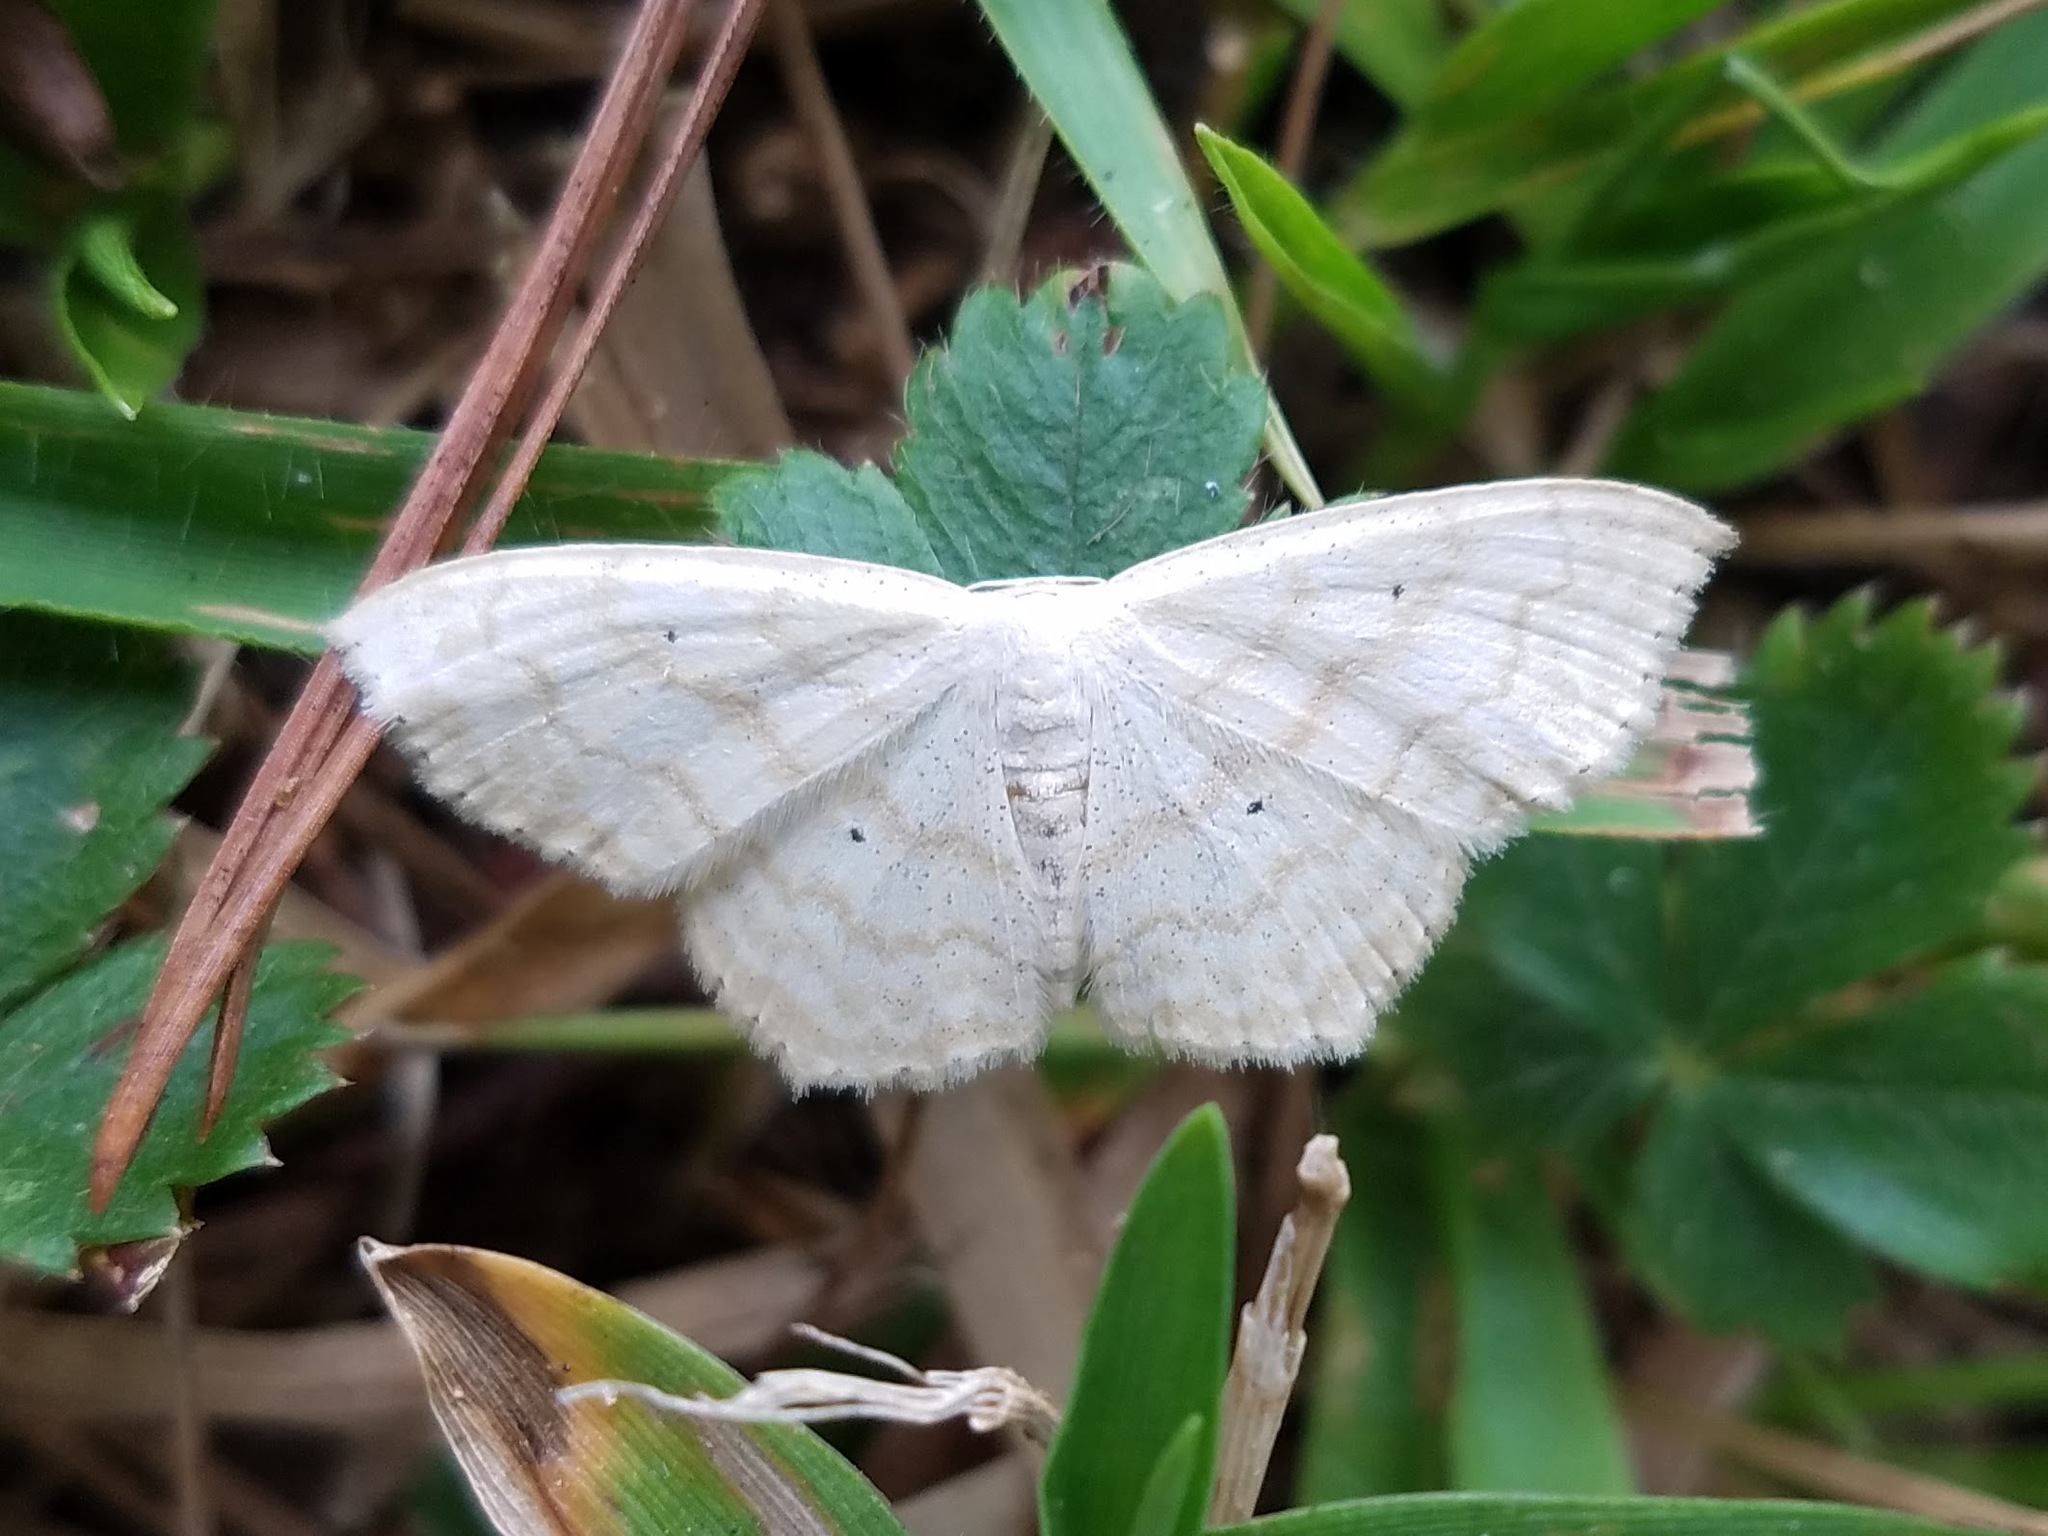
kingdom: Animalia
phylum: Arthropoda
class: Insecta
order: Lepidoptera
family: Geometridae
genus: Scopula
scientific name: Scopula limboundata
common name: Large lace border
